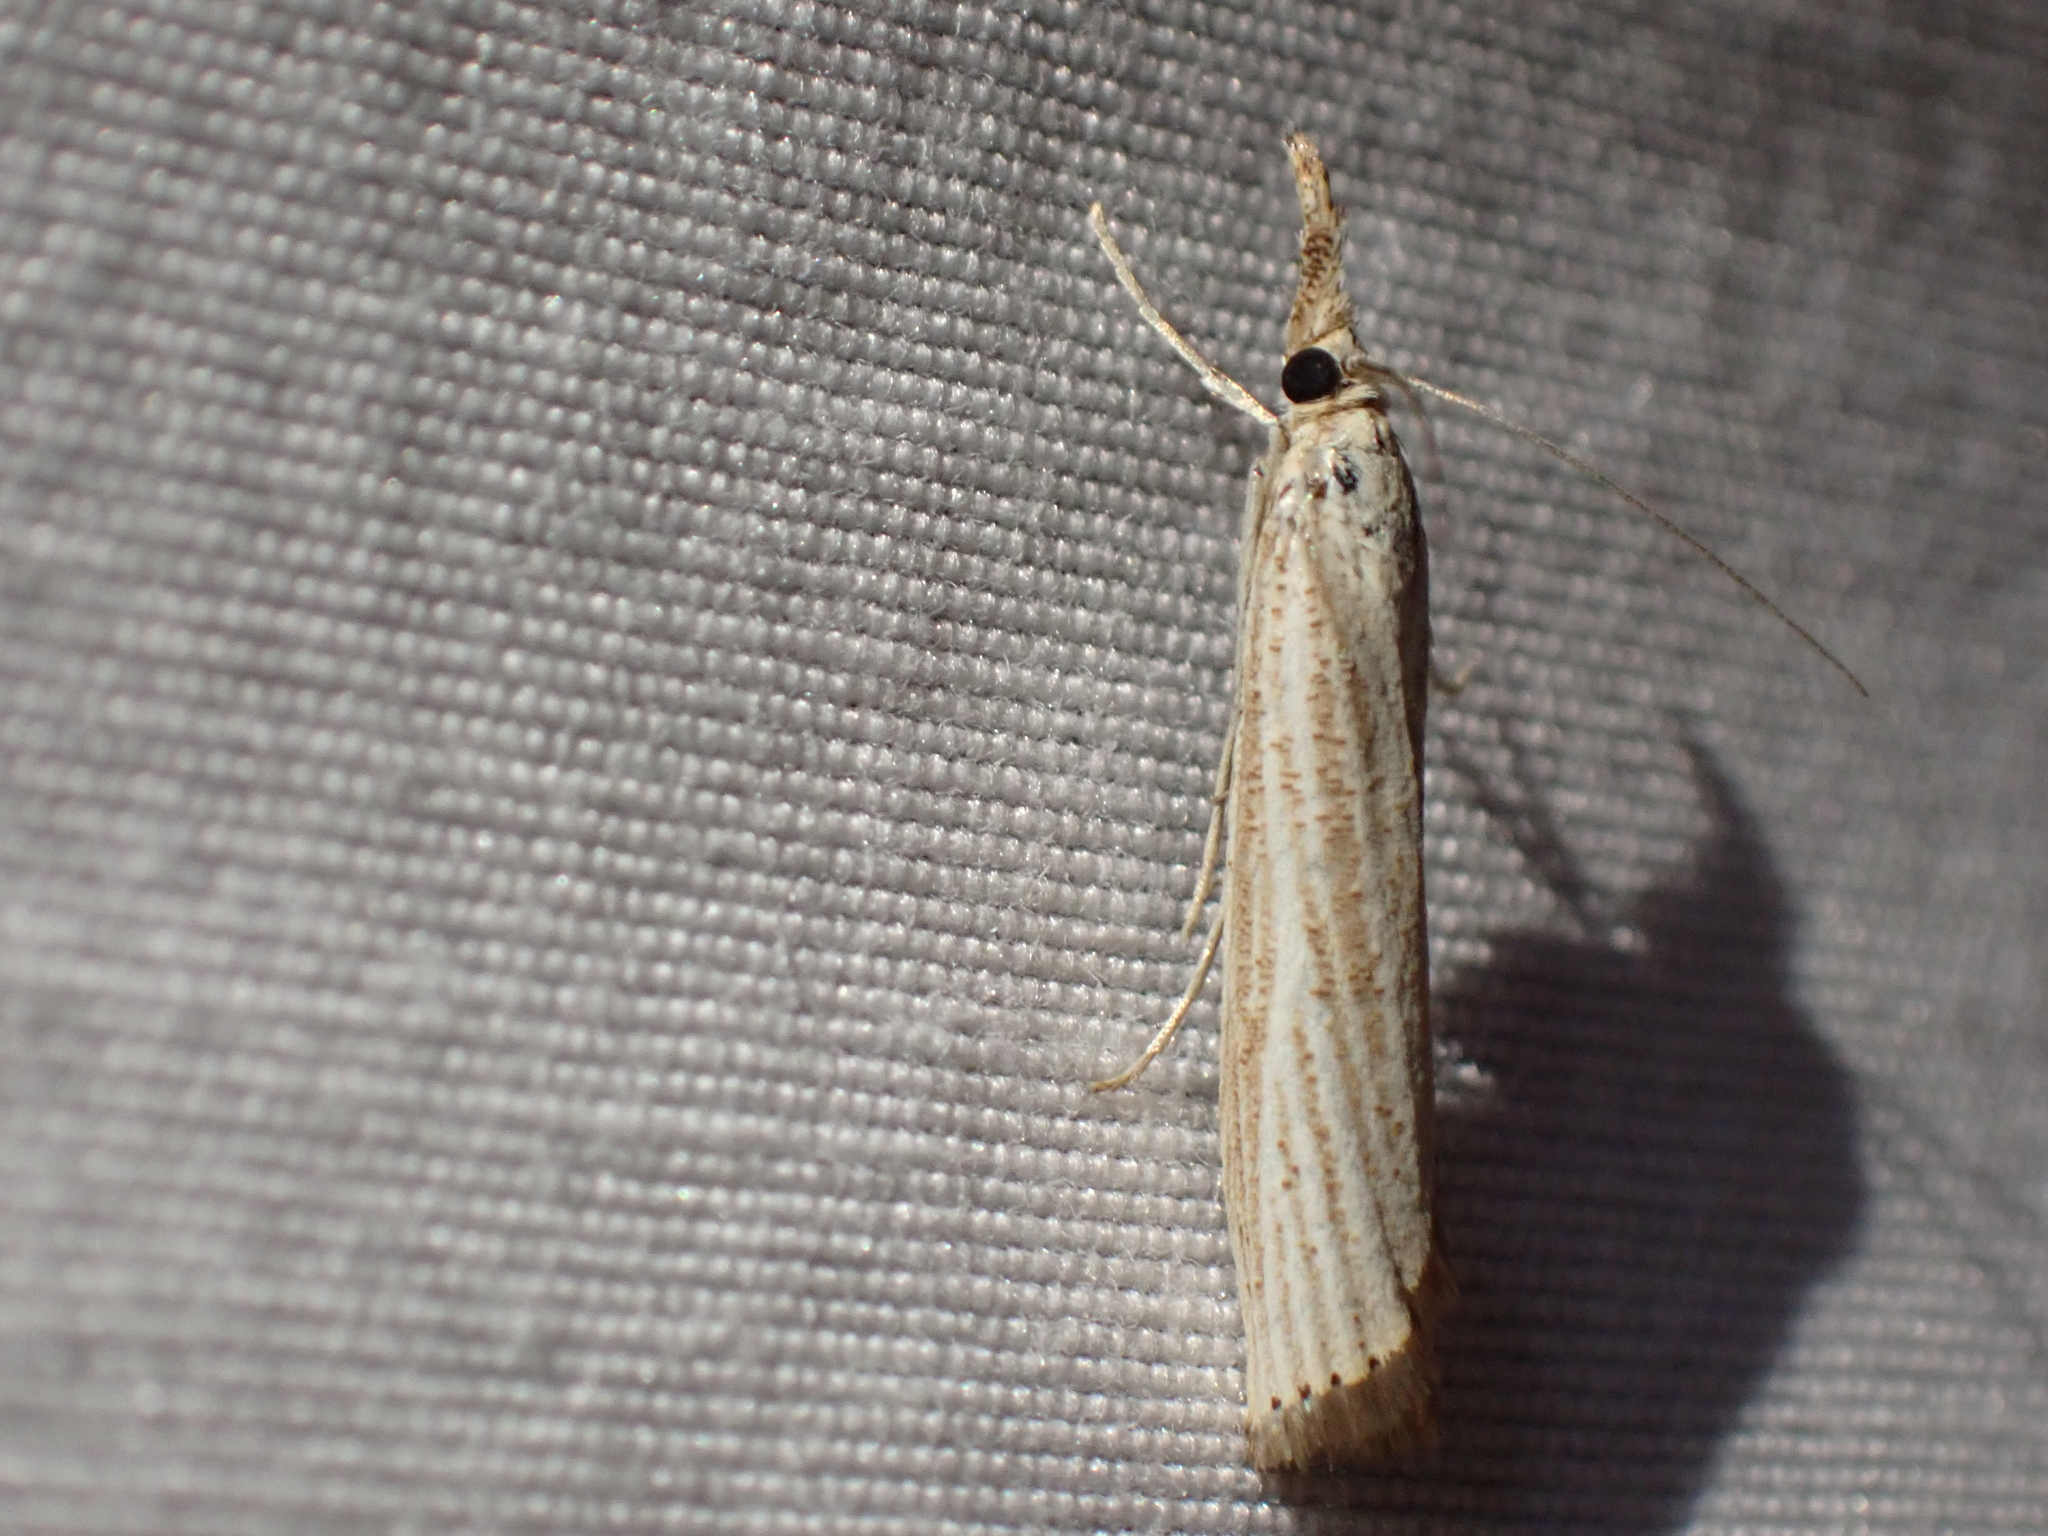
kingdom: Animalia
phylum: Arthropoda
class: Insecta
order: Lepidoptera
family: Crambidae
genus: Agriphila
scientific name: Agriphila straminella
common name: Straw grass-veneer
